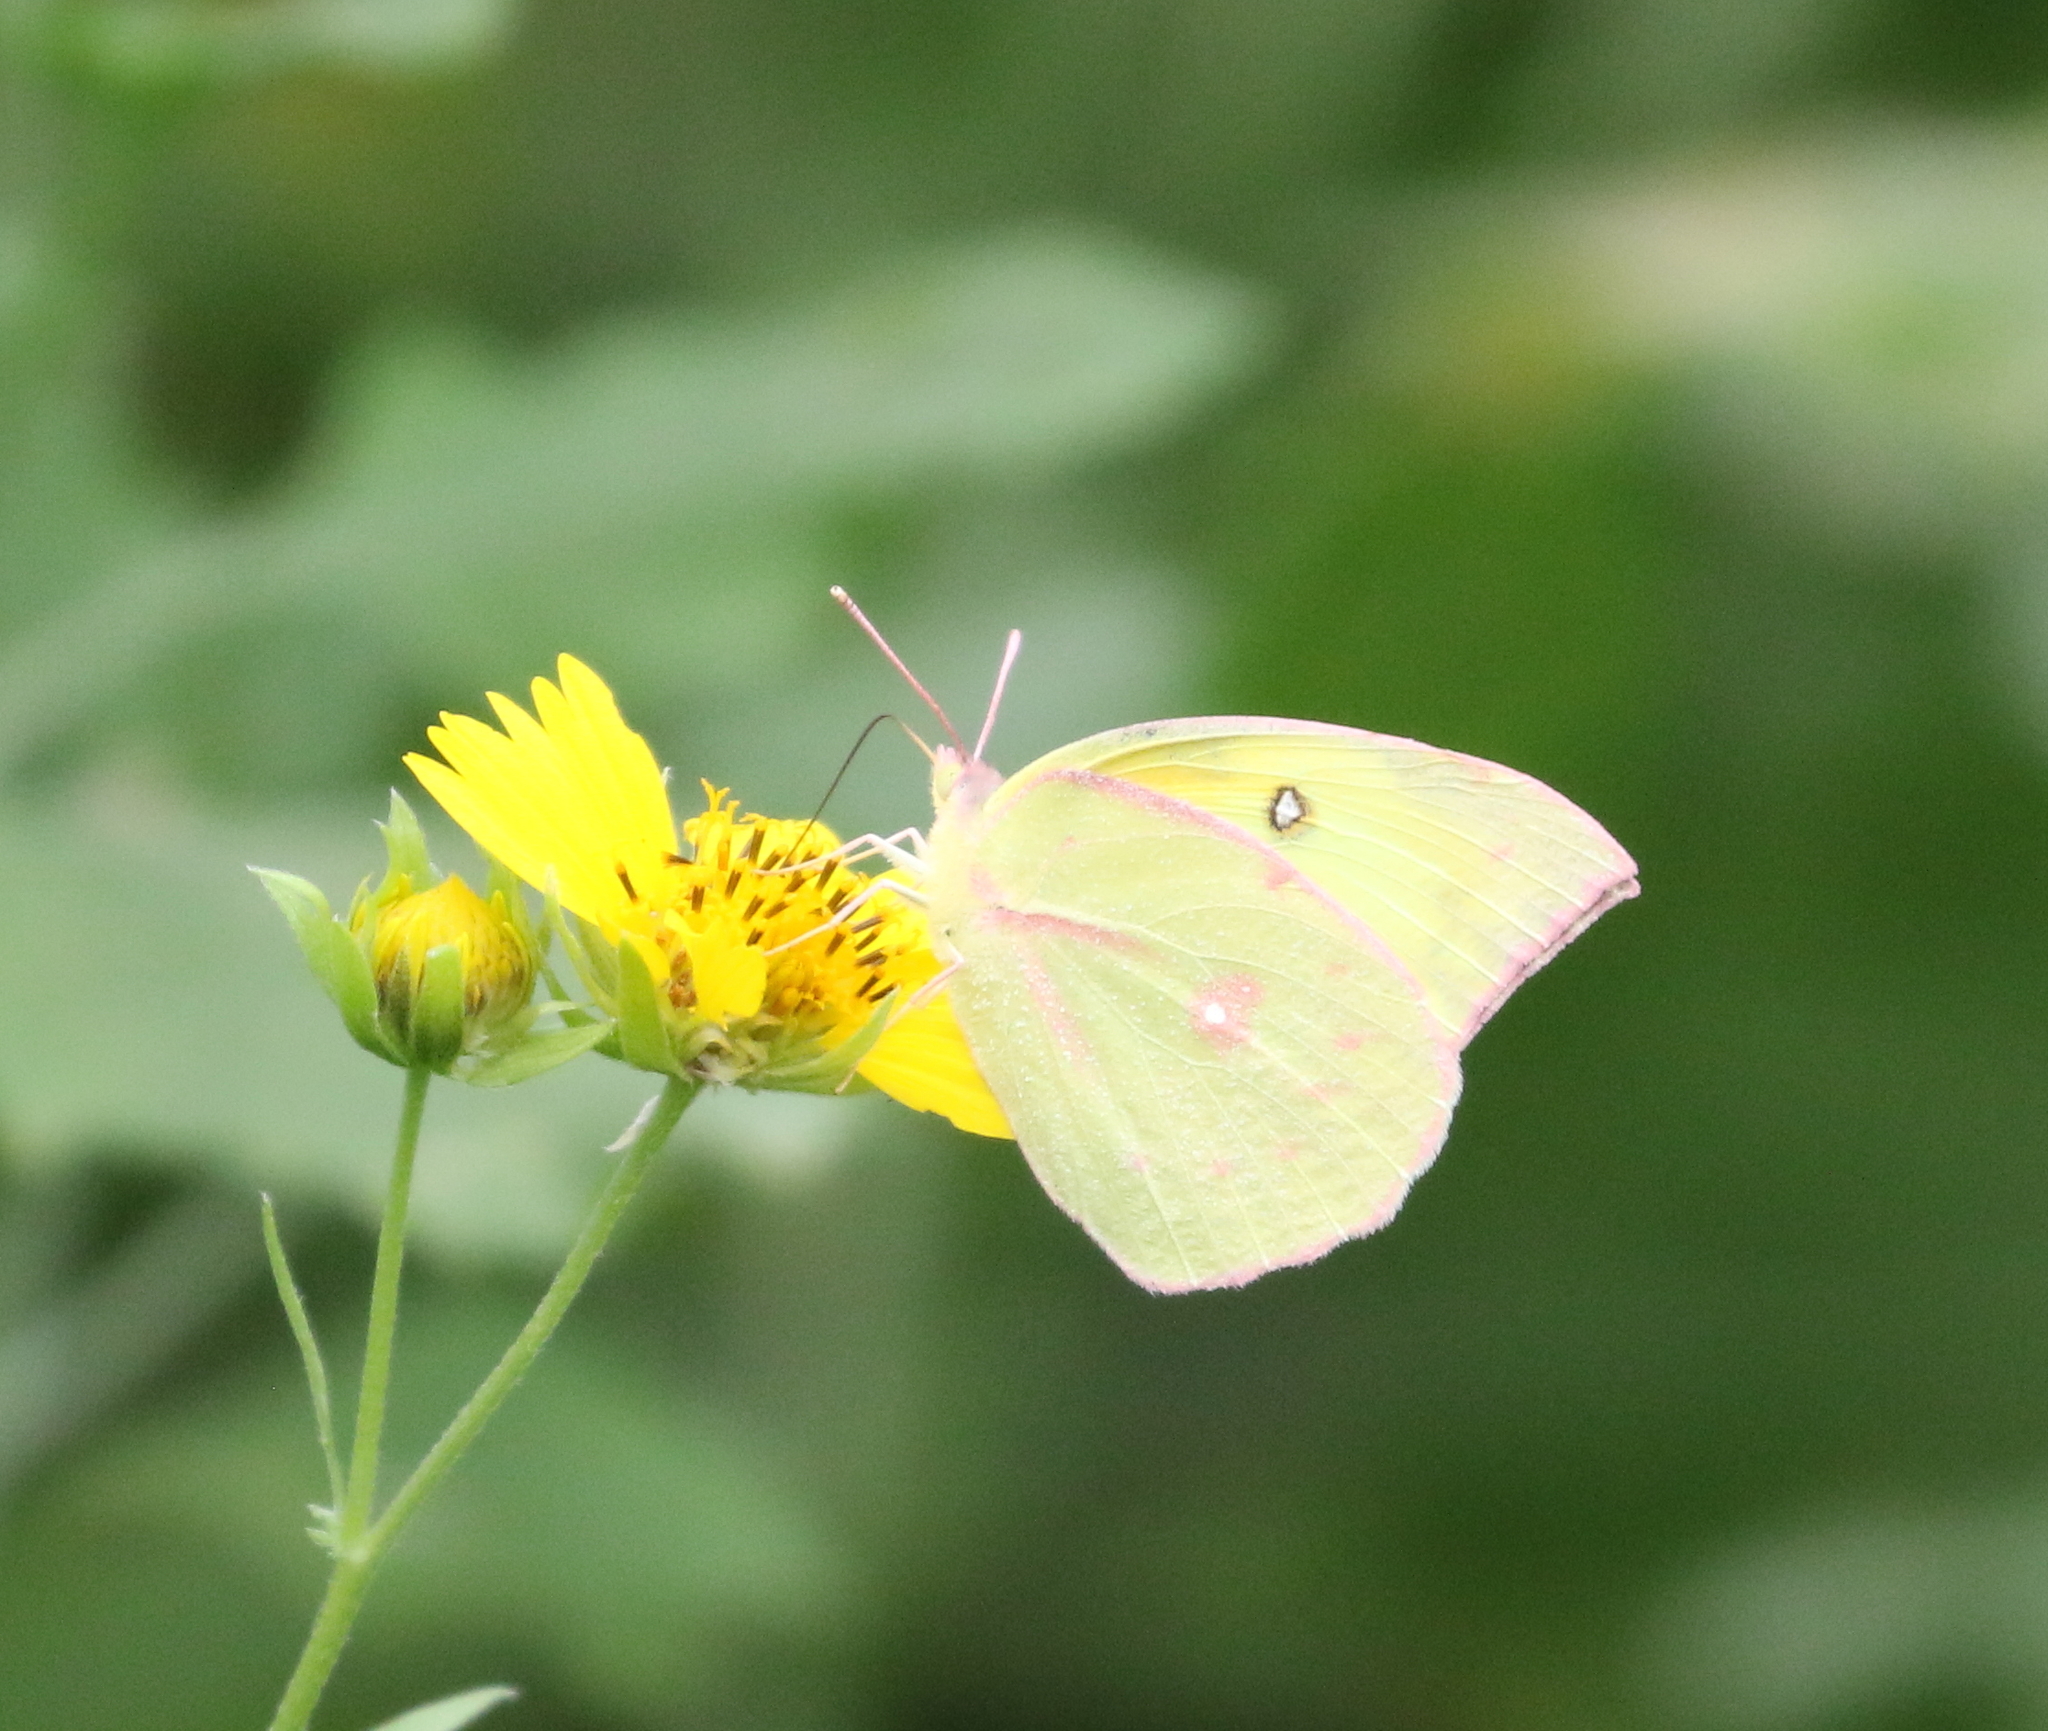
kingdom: Animalia
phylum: Arthropoda
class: Insecta
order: Lepidoptera
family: Pieridae
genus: Zerene
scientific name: Zerene cesonia
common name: Southern dogface
